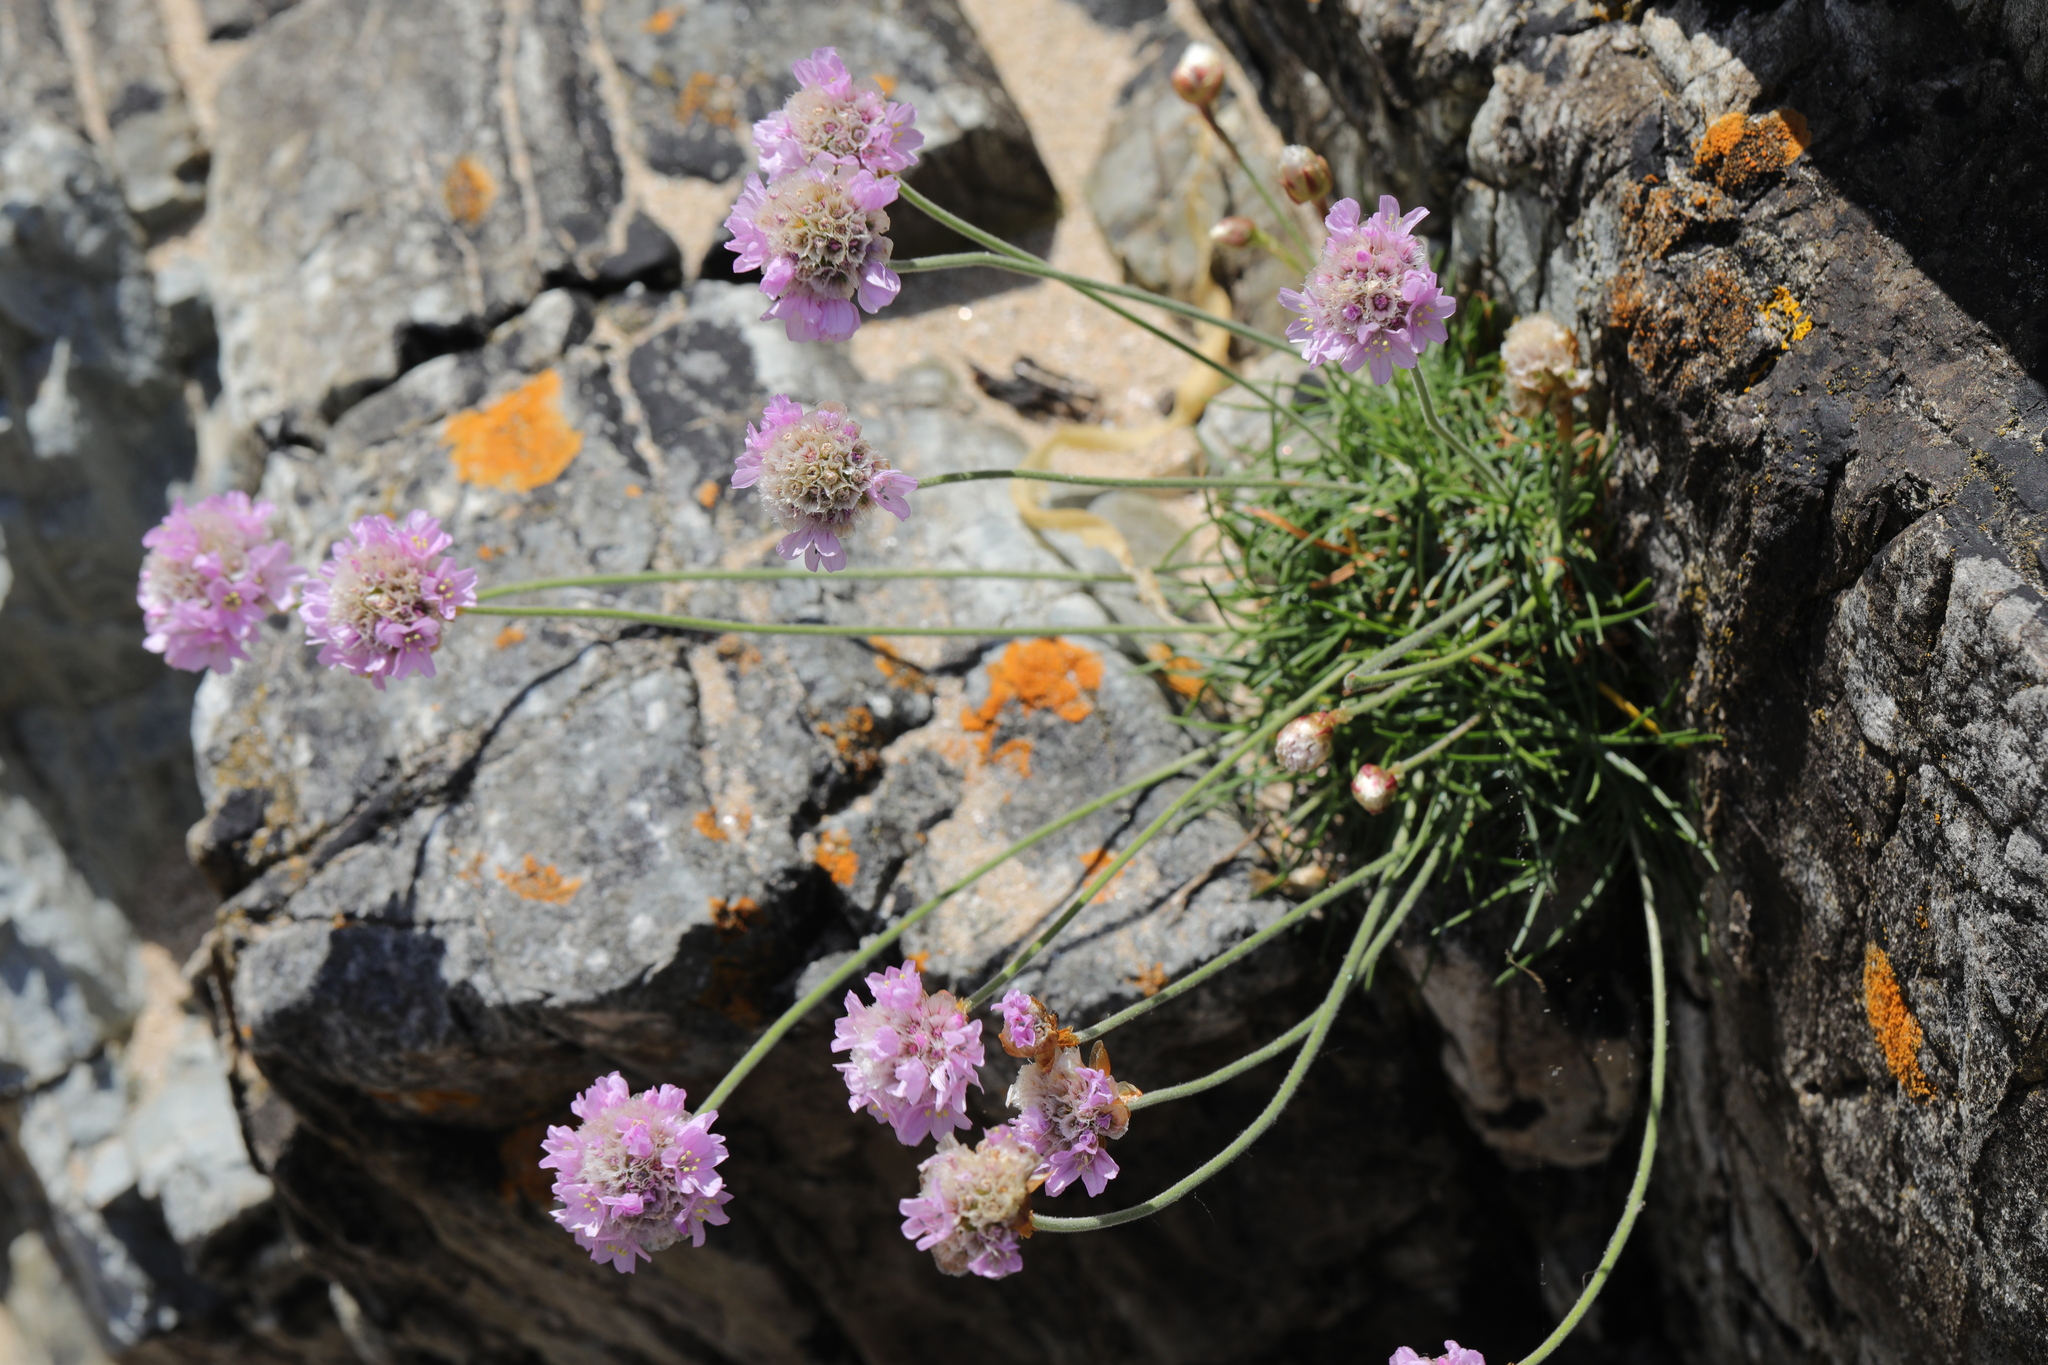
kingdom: Plantae
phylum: Tracheophyta
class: Magnoliopsida
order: Caryophyllales
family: Plumbaginaceae
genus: Armeria
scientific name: Armeria maritima
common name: Thrift
